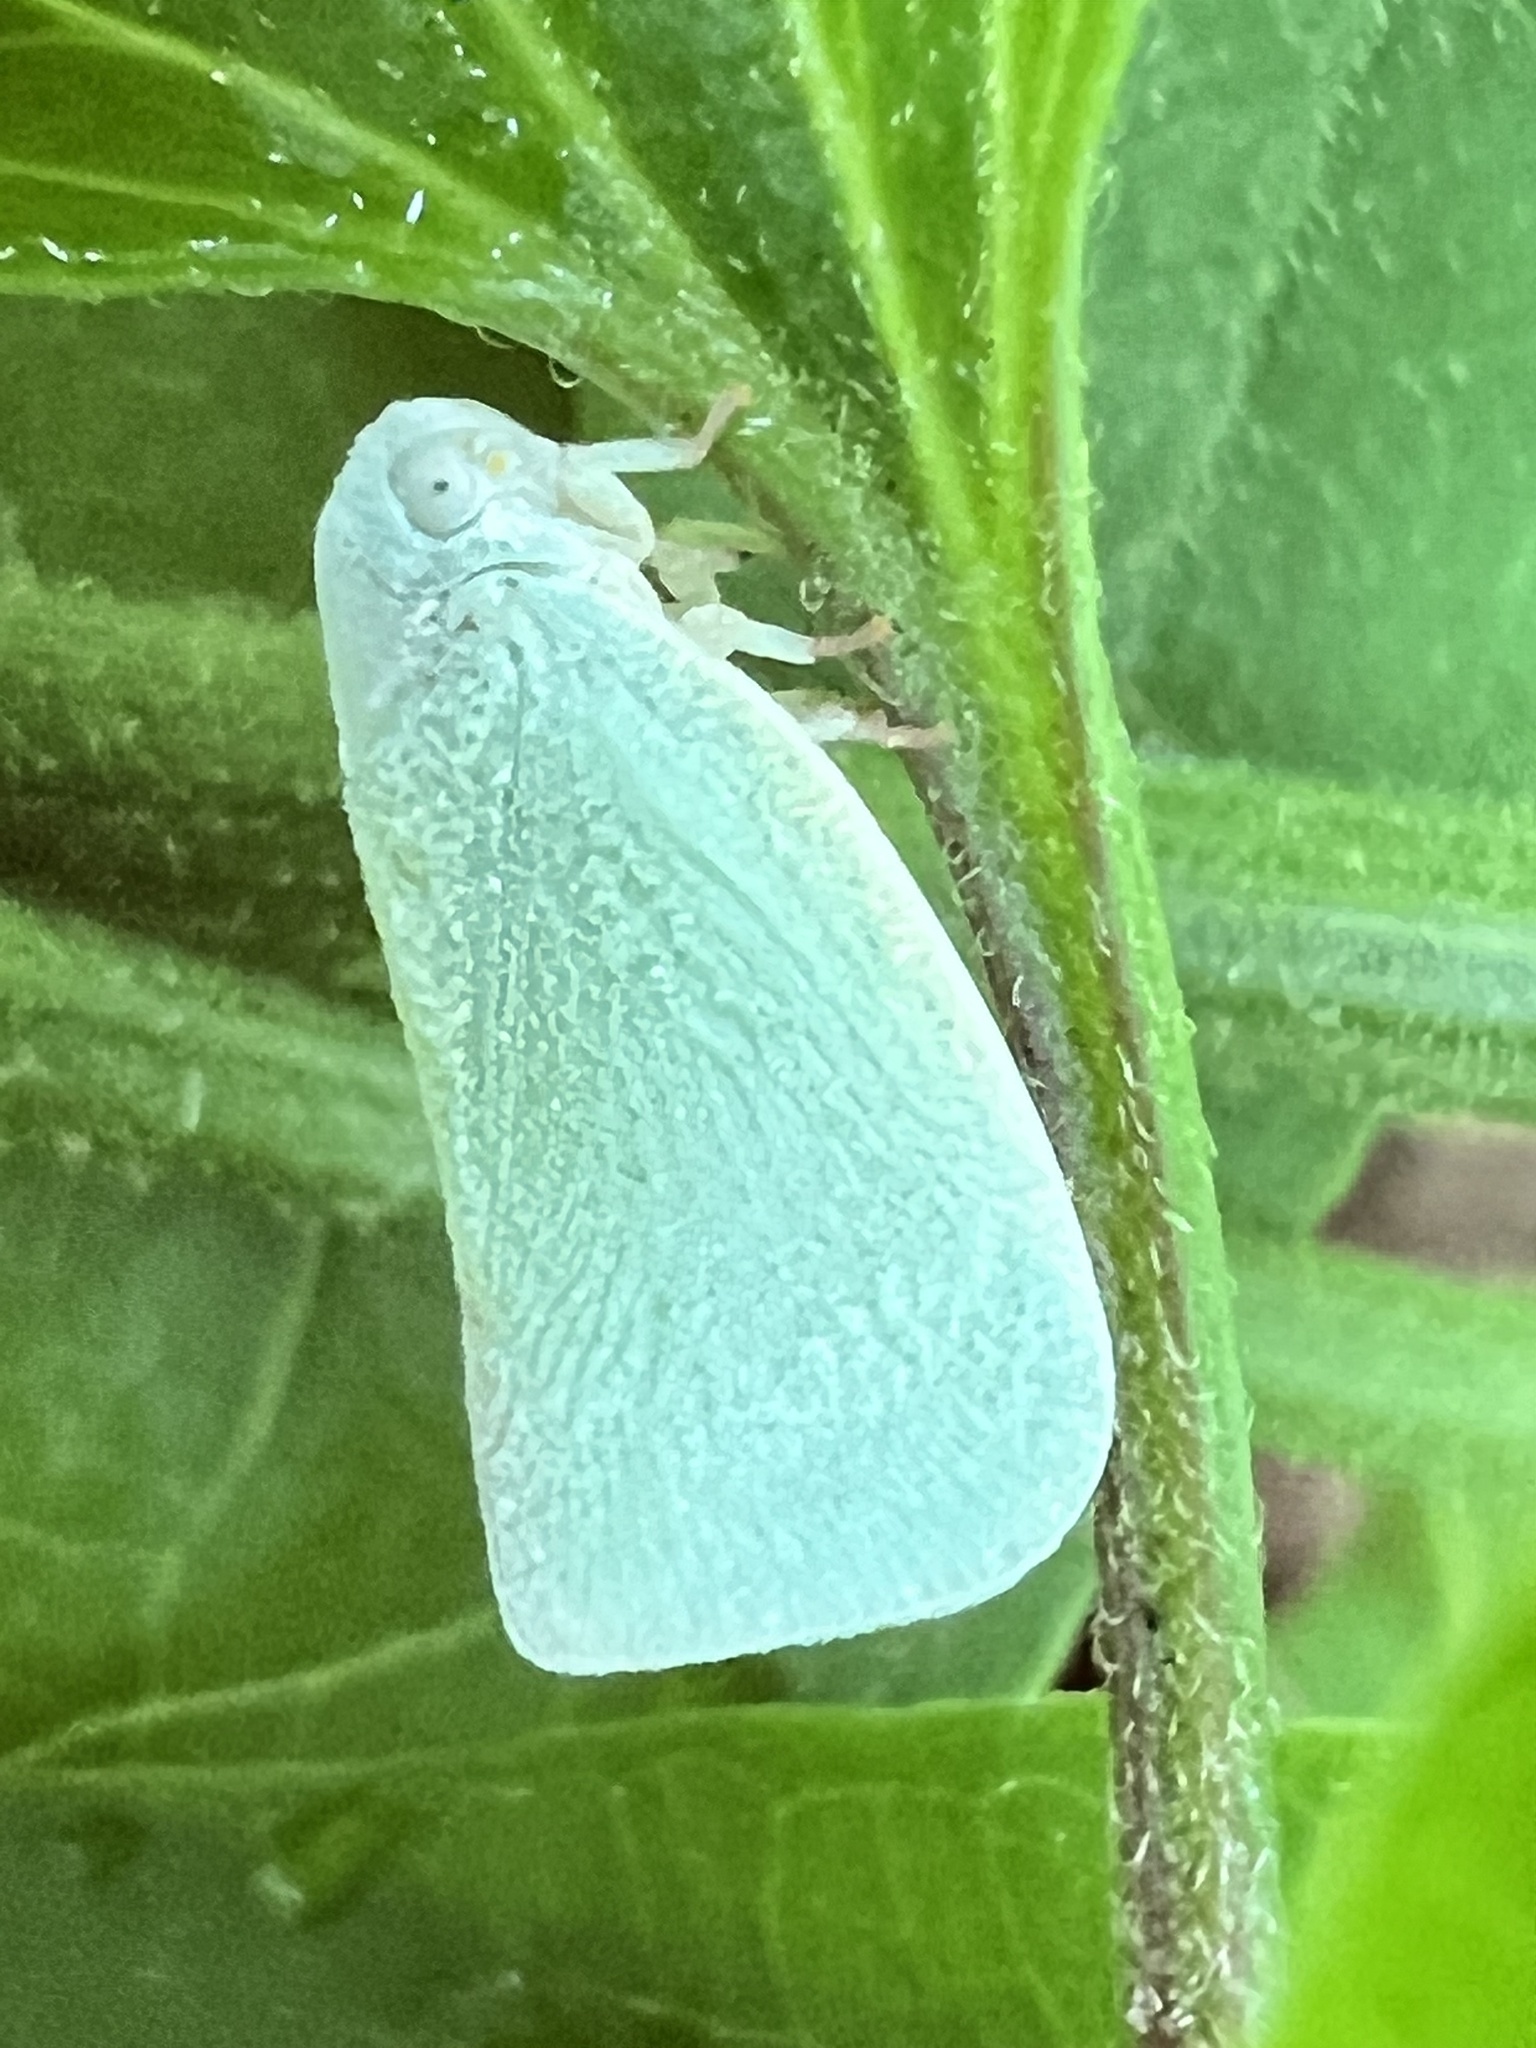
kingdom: Animalia
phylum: Arthropoda
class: Insecta
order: Hemiptera
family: Flatidae
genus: Flatormenis
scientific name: Flatormenis proxima
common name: Northern flatid planthopper
